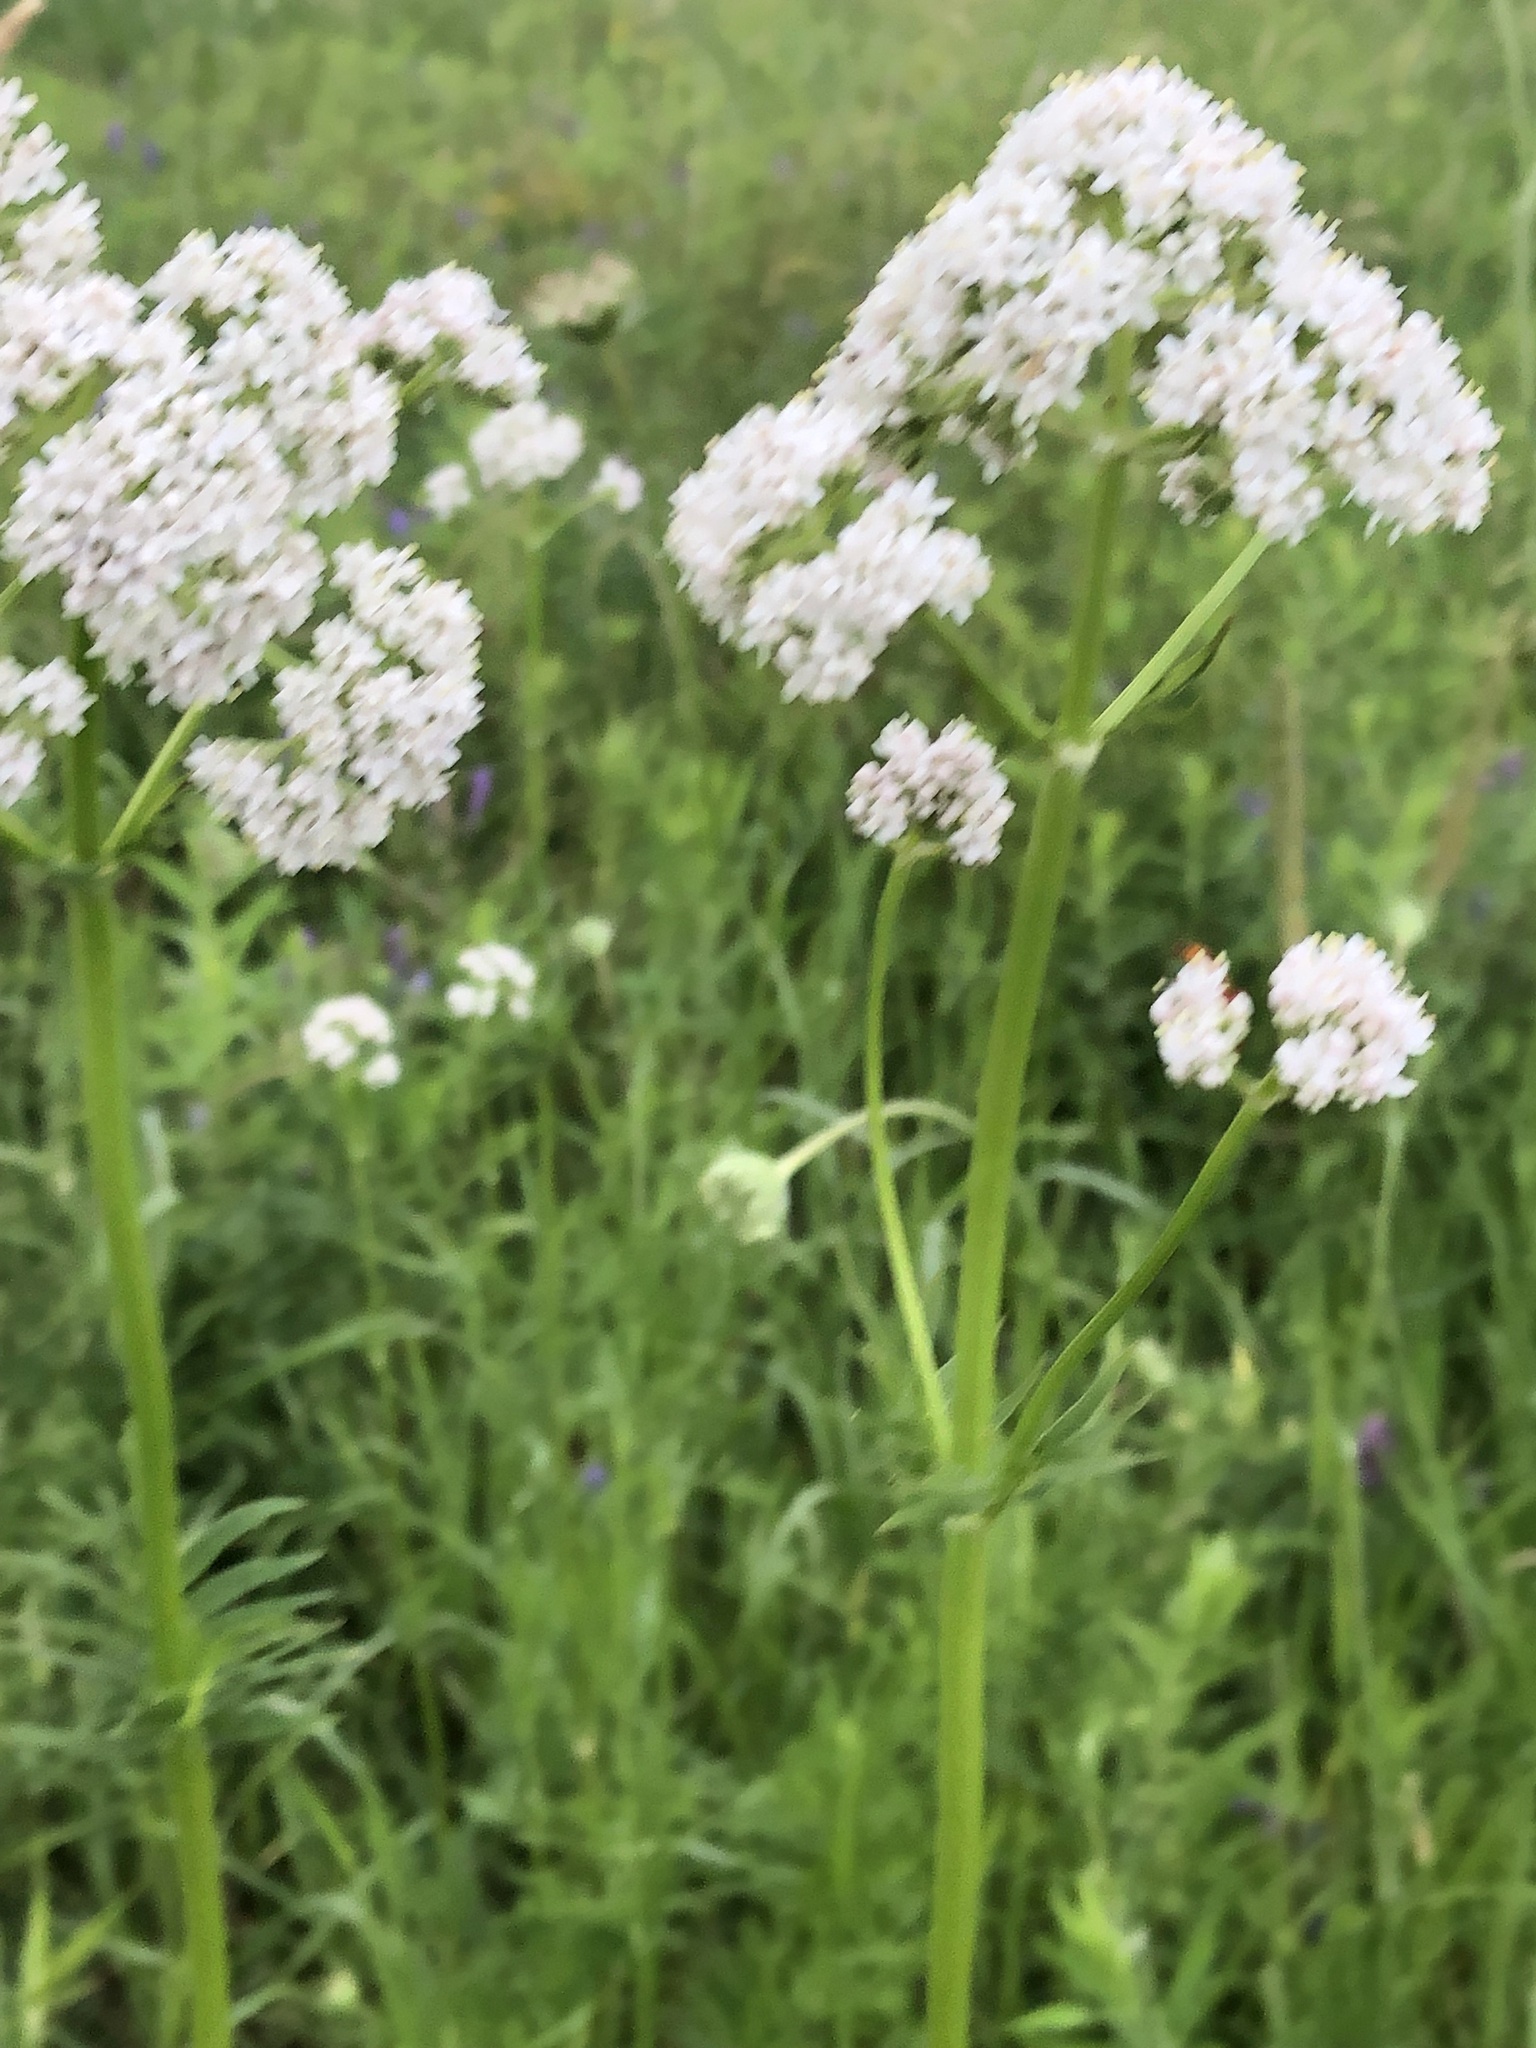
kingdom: Plantae
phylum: Tracheophyta
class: Magnoliopsida
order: Dipsacales
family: Caprifoliaceae
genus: Valeriana
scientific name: Valeriana officinalis
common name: Common valerian
